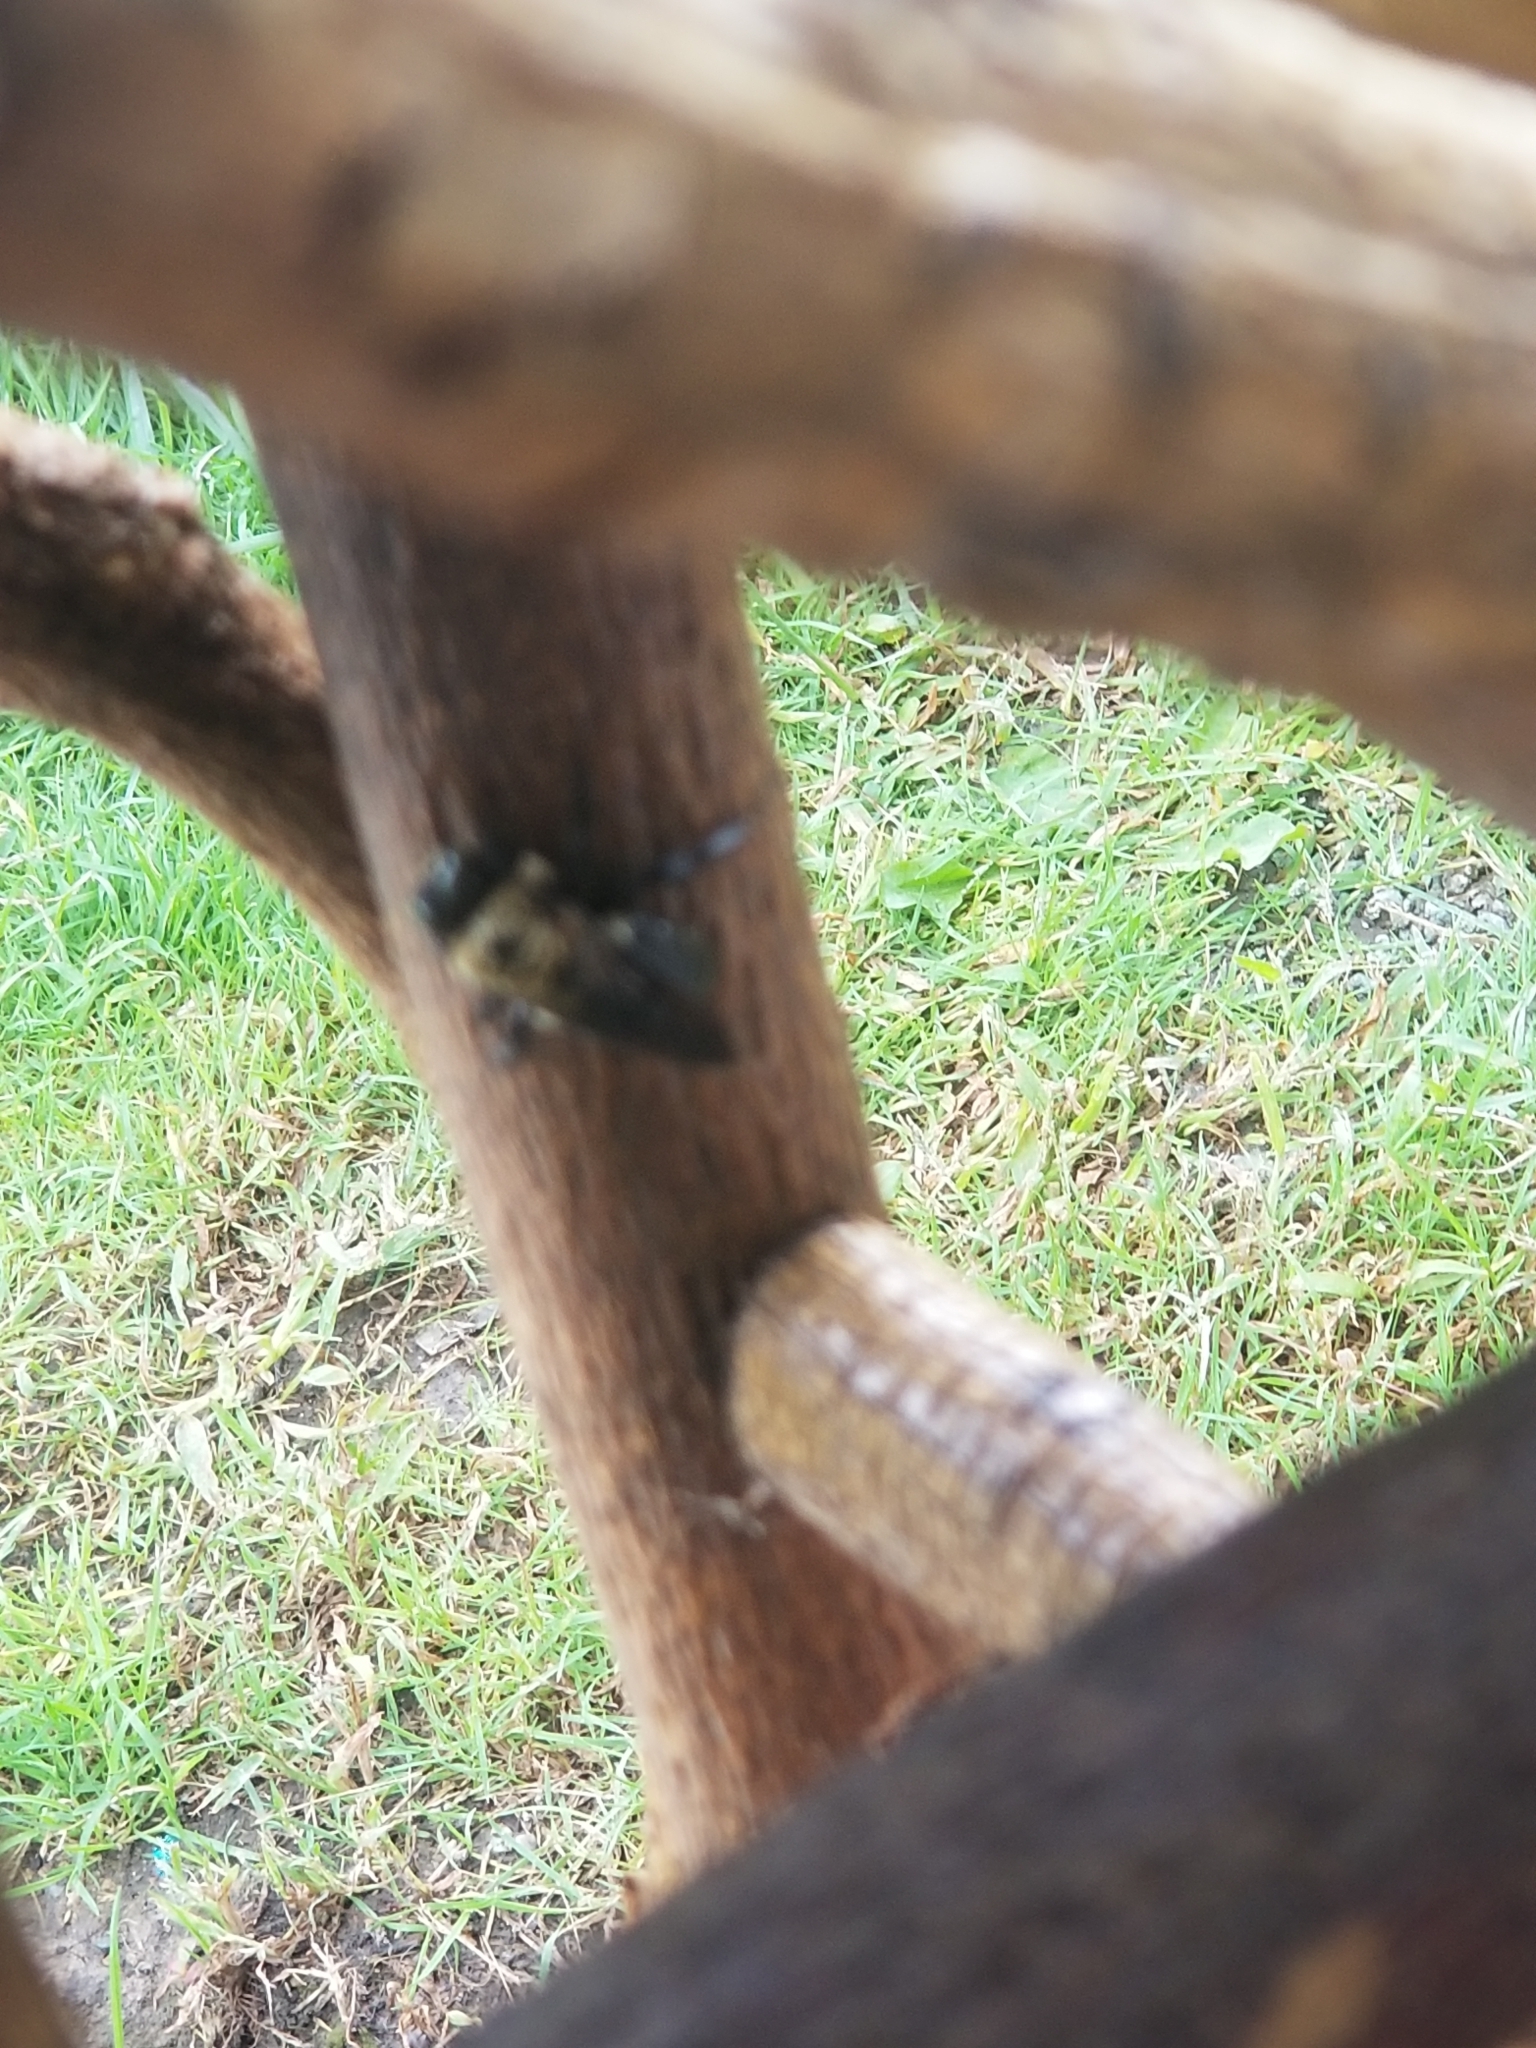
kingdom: Animalia
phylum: Arthropoda
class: Insecta
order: Hymenoptera
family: Apidae
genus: Xylocopa
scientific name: Xylocopa virginica
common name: Carpenter bee
